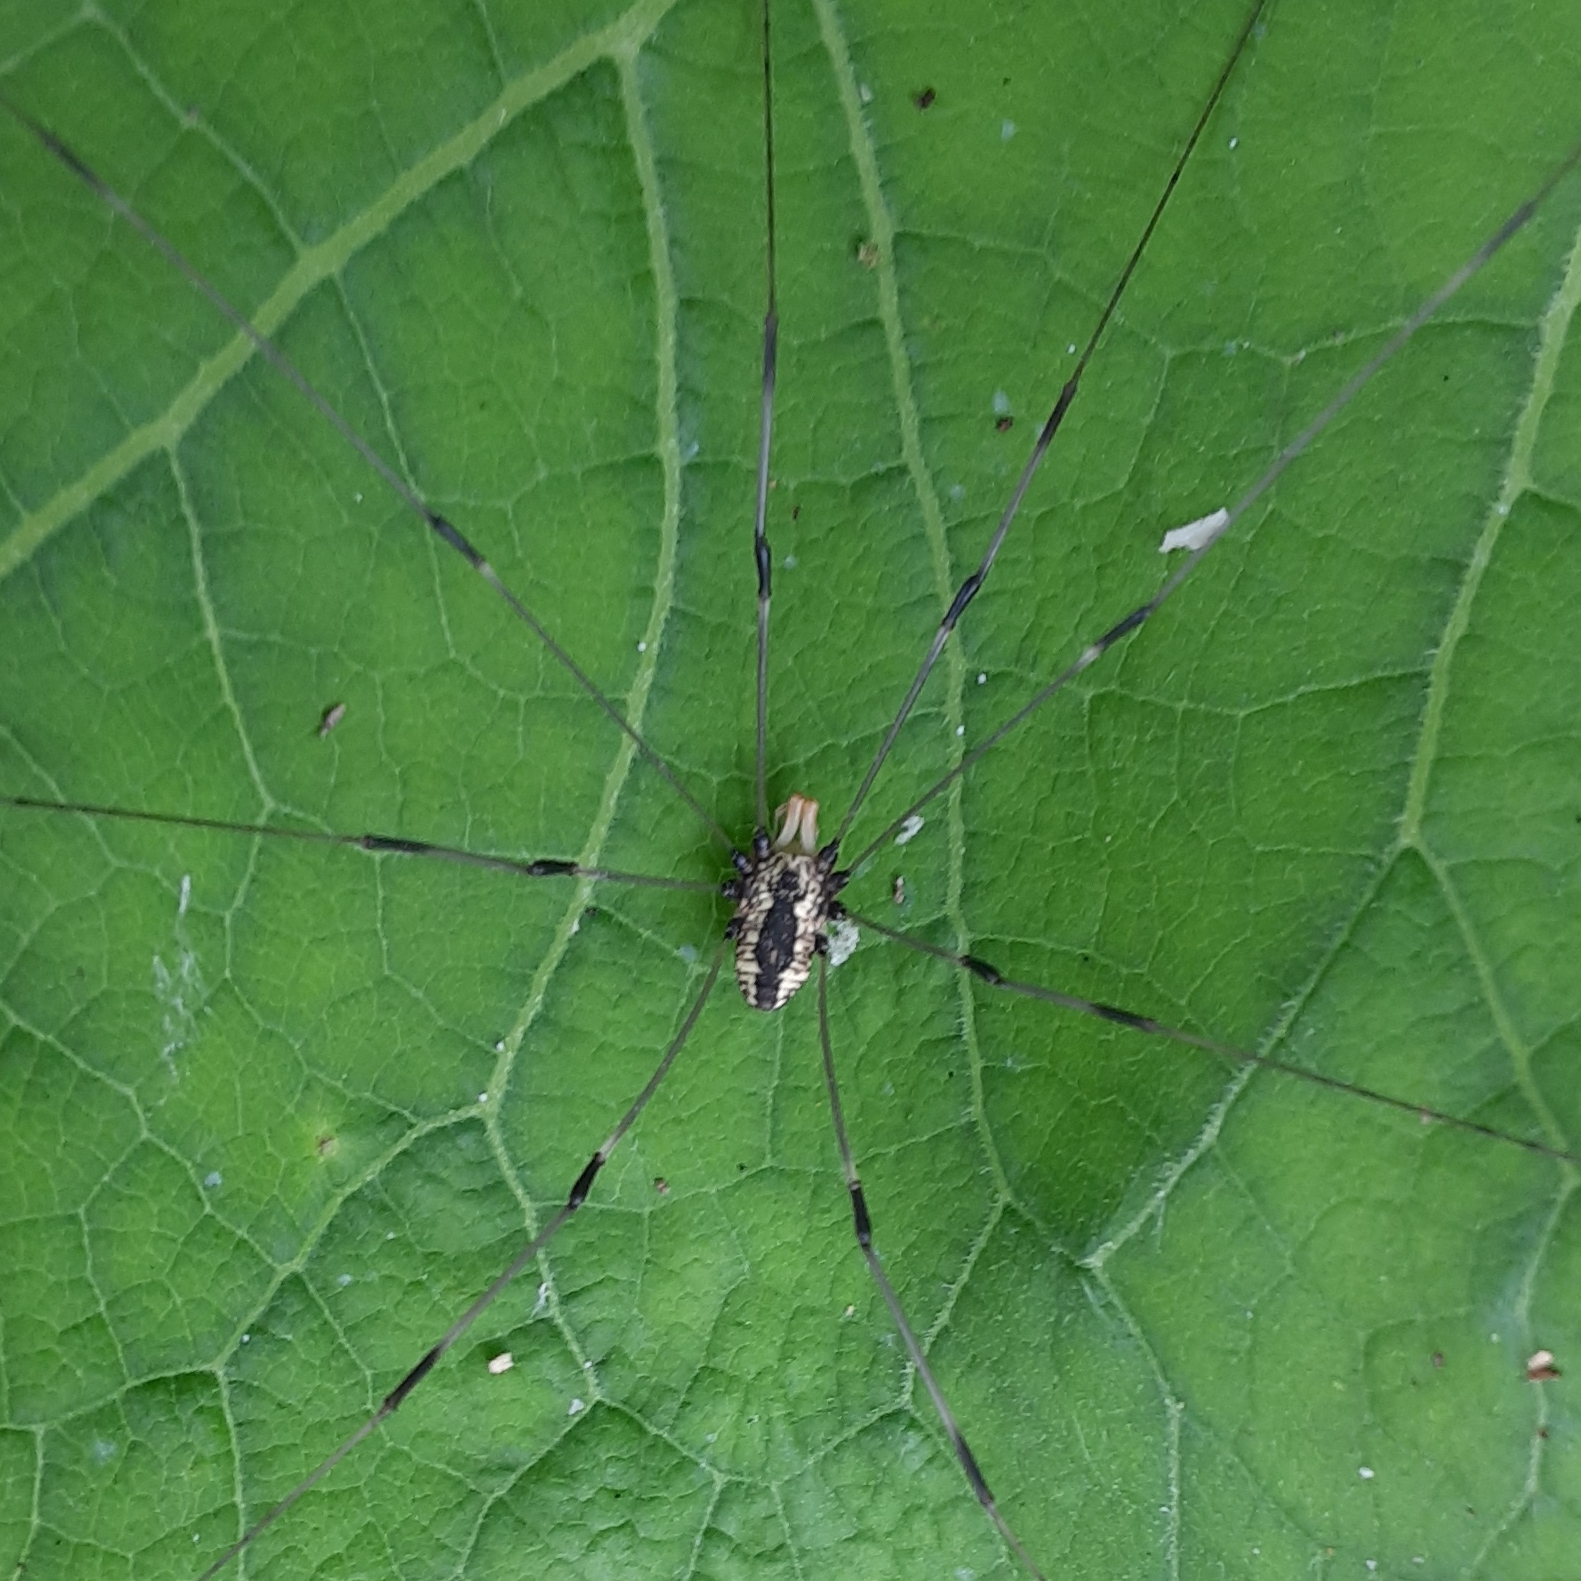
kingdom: Animalia
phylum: Arthropoda
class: Arachnida
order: Opiliones
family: Sclerosomatidae
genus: Leiobunum
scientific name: Leiobunum vittatum
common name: Eastern harvestman
